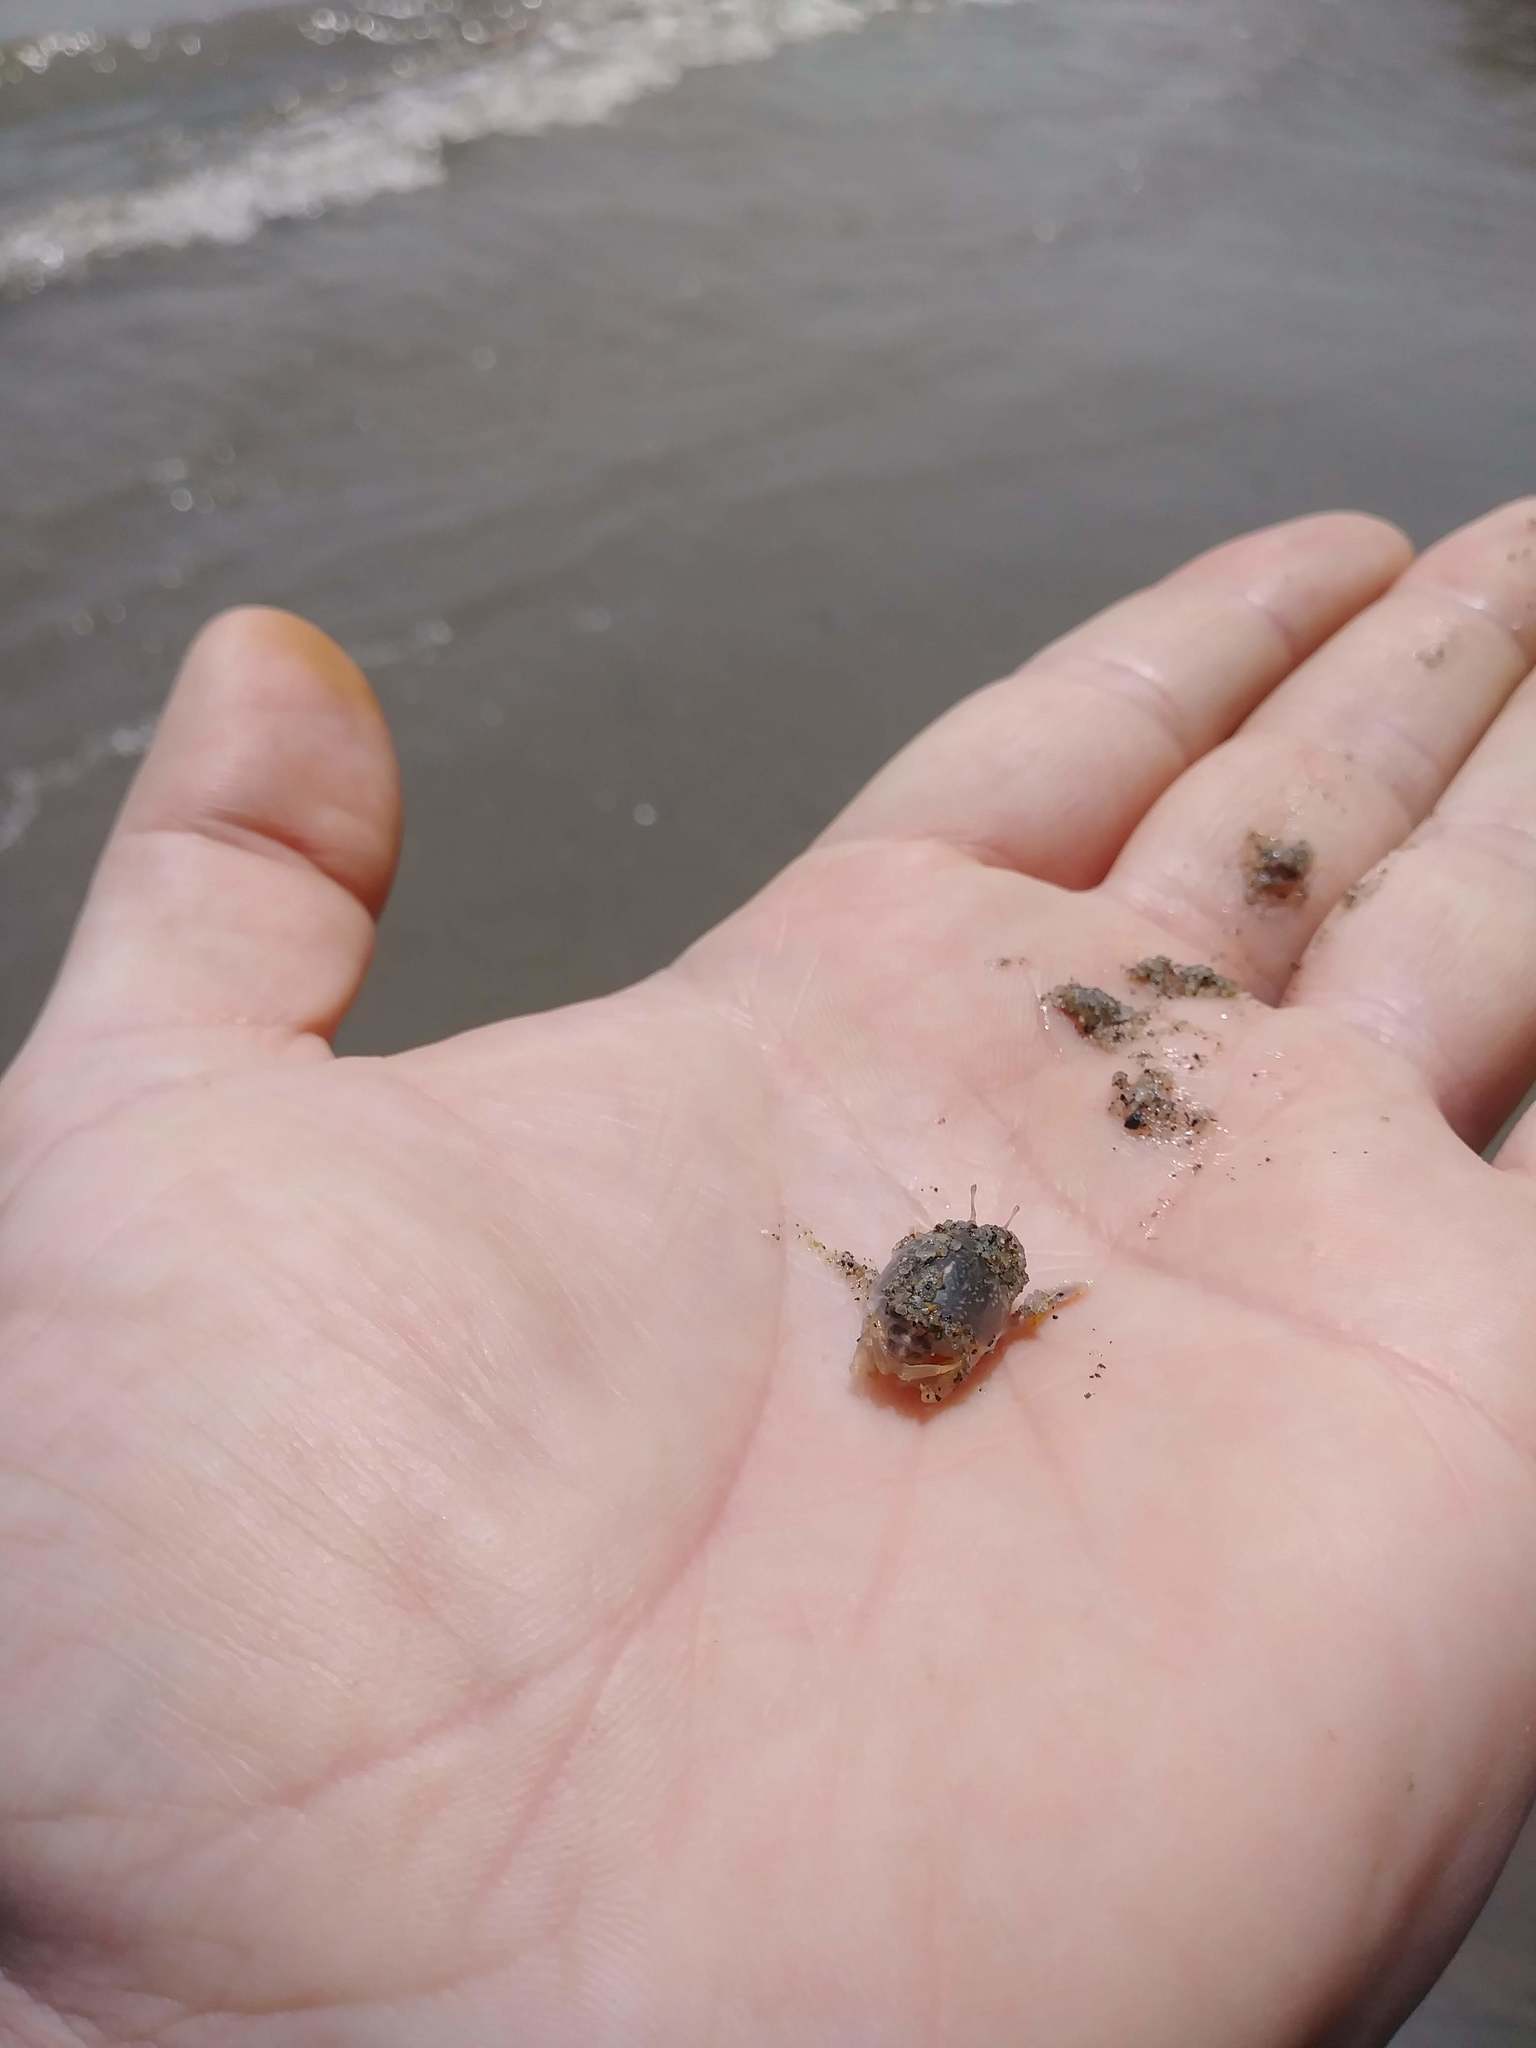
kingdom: Animalia
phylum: Arthropoda
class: Malacostraca
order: Decapoda
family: Hippidae
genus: Emerita
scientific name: Emerita analoga
